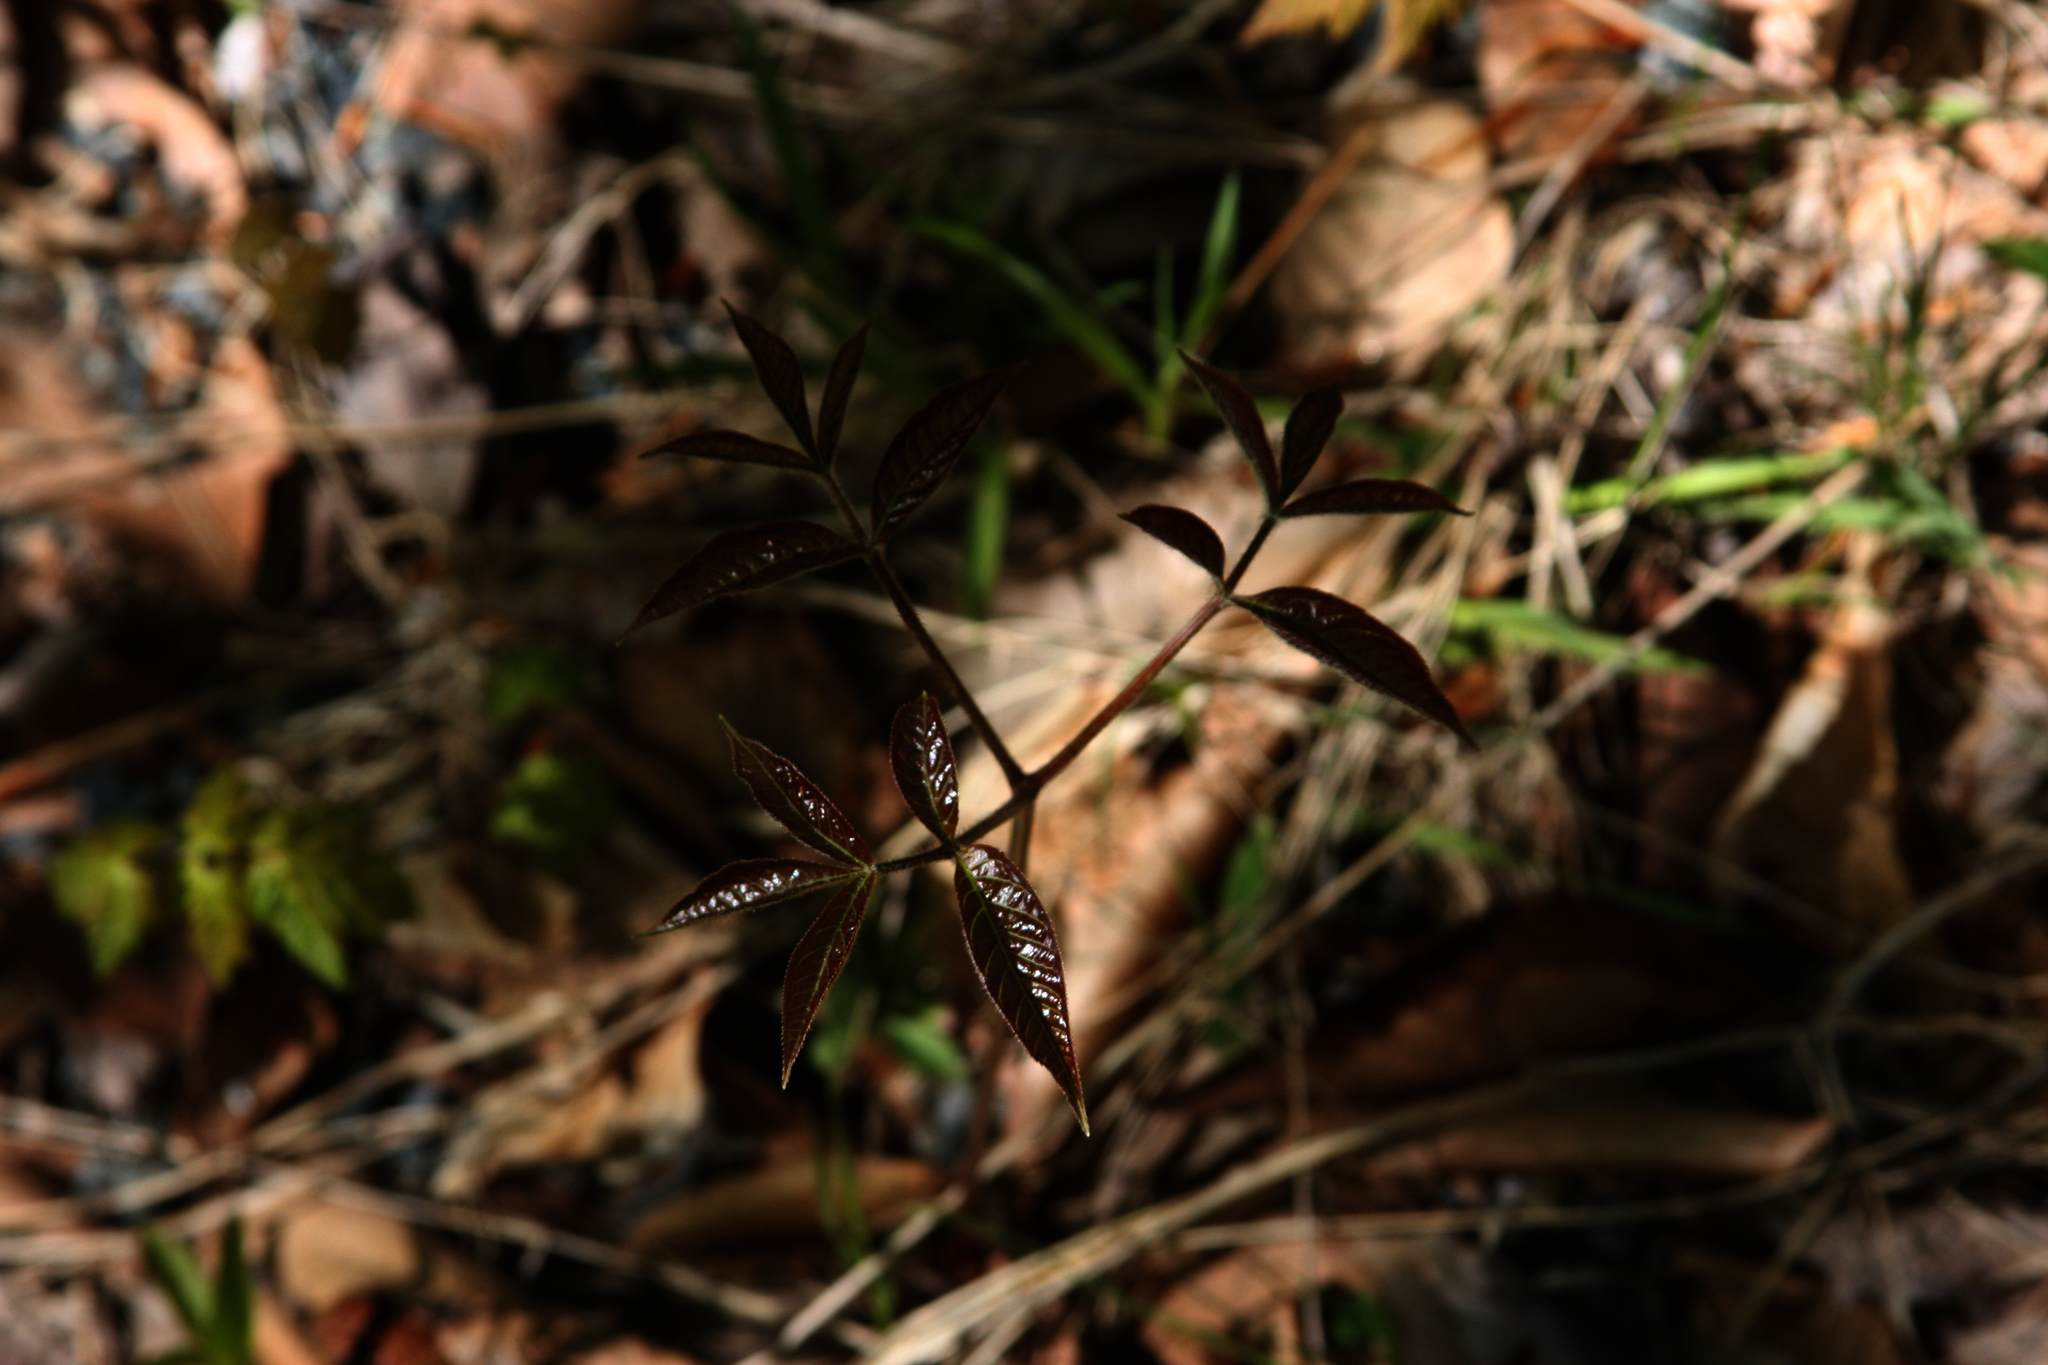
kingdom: Plantae
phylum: Tracheophyta
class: Magnoliopsida
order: Apiales
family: Araliaceae
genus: Aralia
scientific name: Aralia nudicaulis
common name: Wild sarsaparilla
